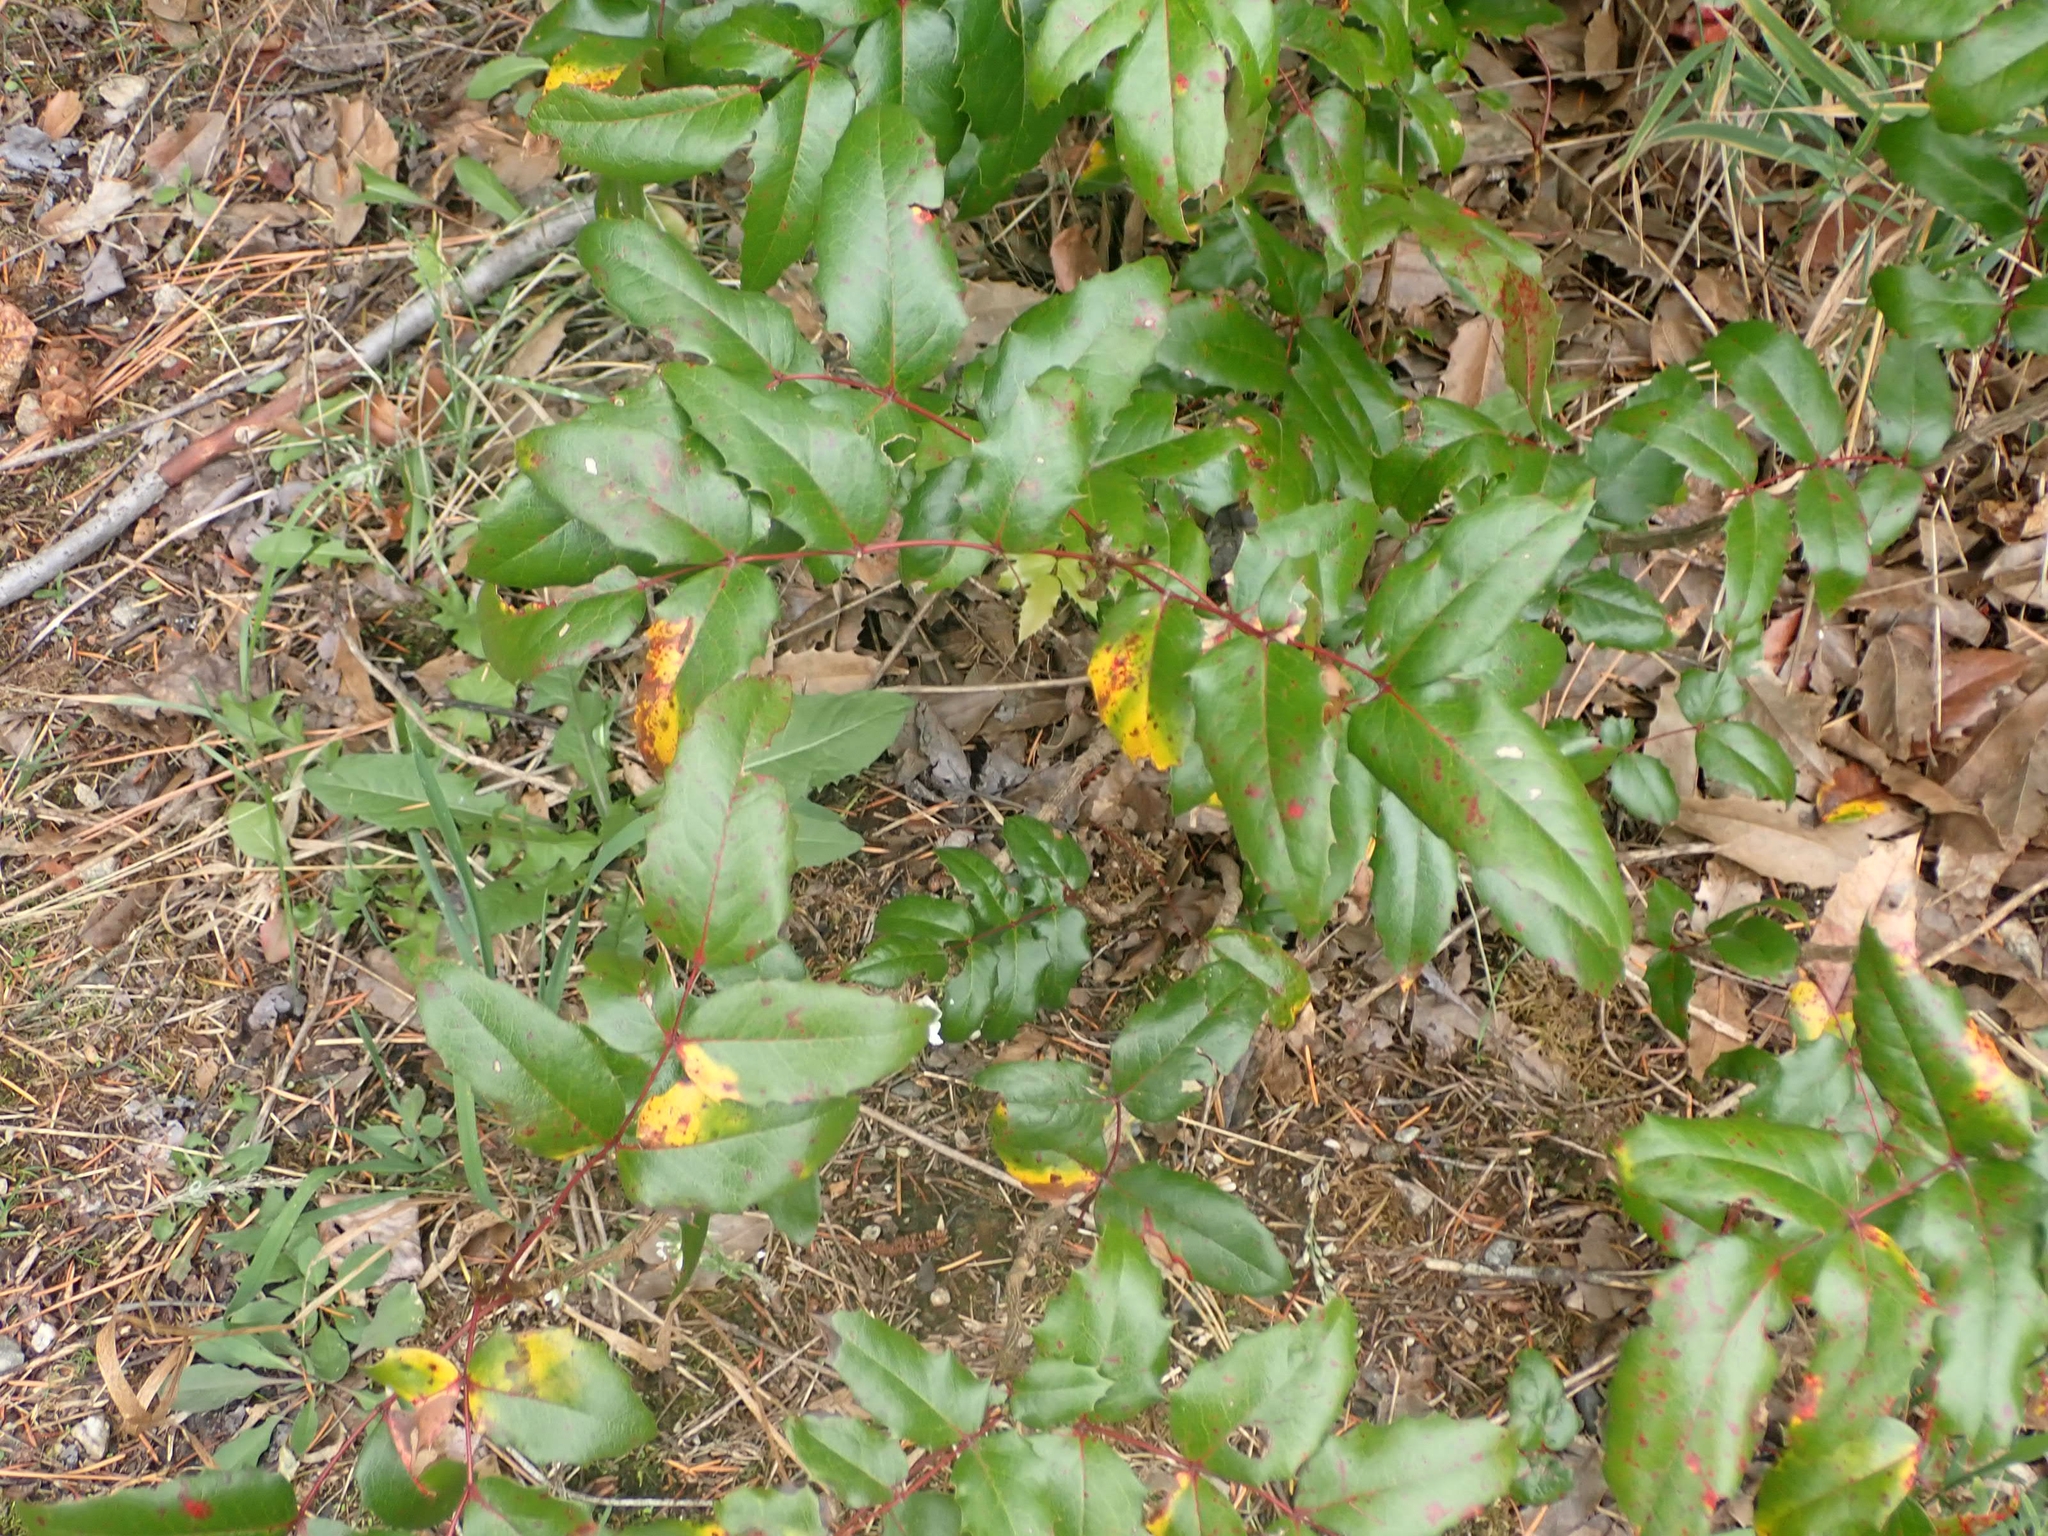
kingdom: Plantae
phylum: Tracheophyta
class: Magnoliopsida
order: Ranunculales
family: Berberidaceae
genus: Mahonia
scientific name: Mahonia aquifolium
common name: Oregon-grape
